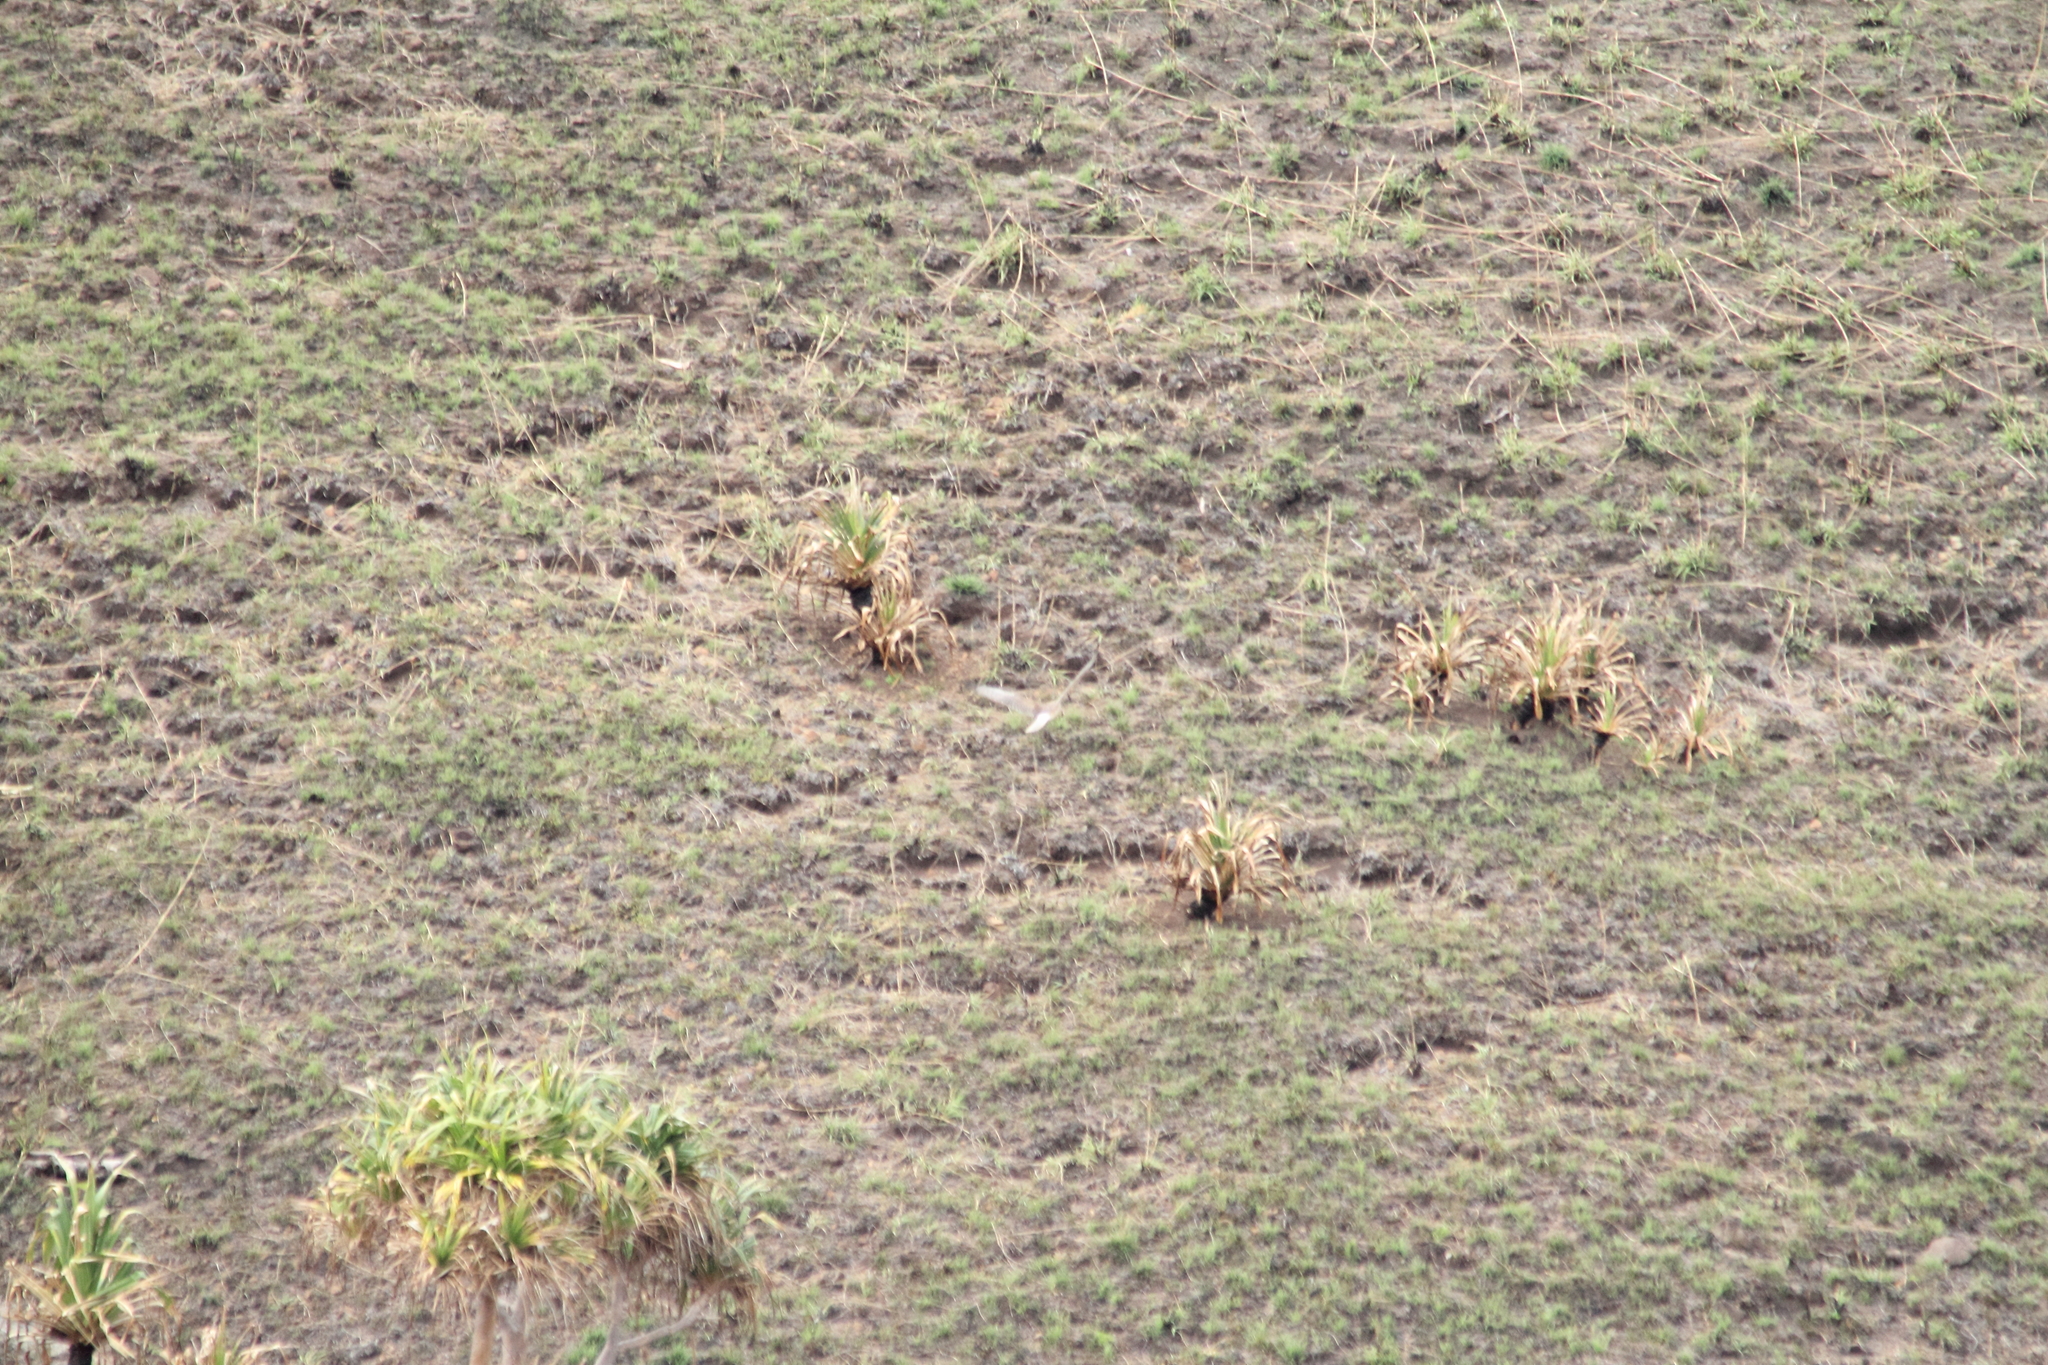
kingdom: Animalia
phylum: Chordata
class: Aves
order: Accipitriformes
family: Accipitridae
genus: Circus
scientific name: Circus approximans
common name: Swamp harrier
